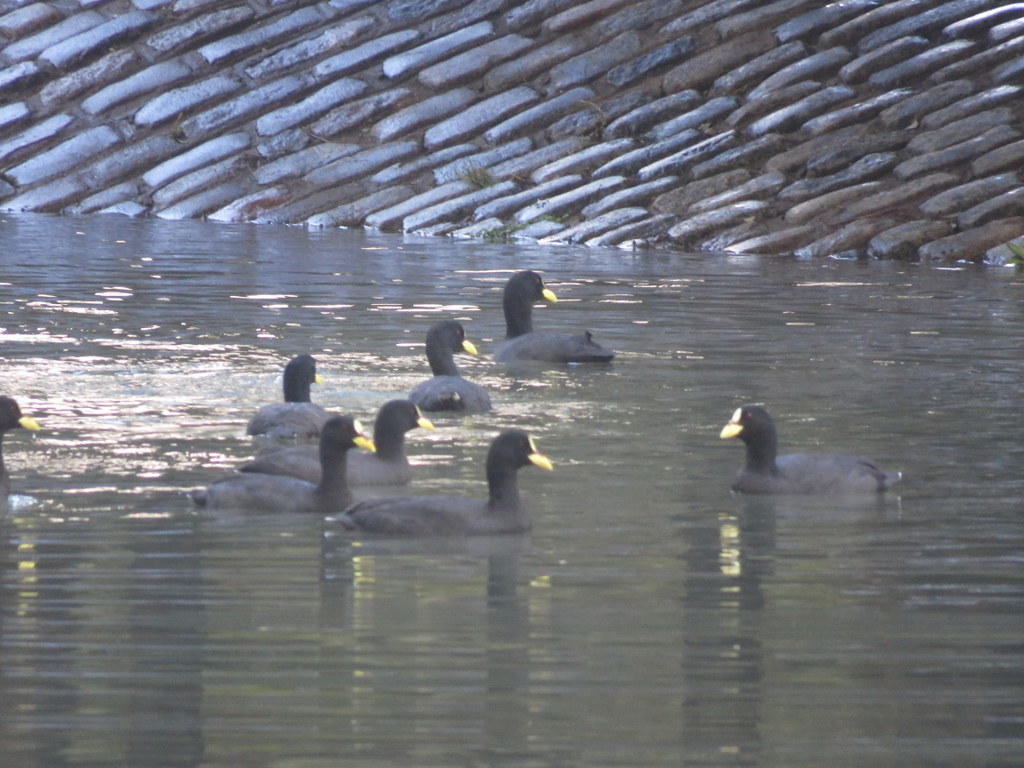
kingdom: Animalia
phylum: Chordata
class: Aves
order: Gruiformes
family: Rallidae
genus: Fulica
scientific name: Fulica armillata
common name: Red-gartered coot
